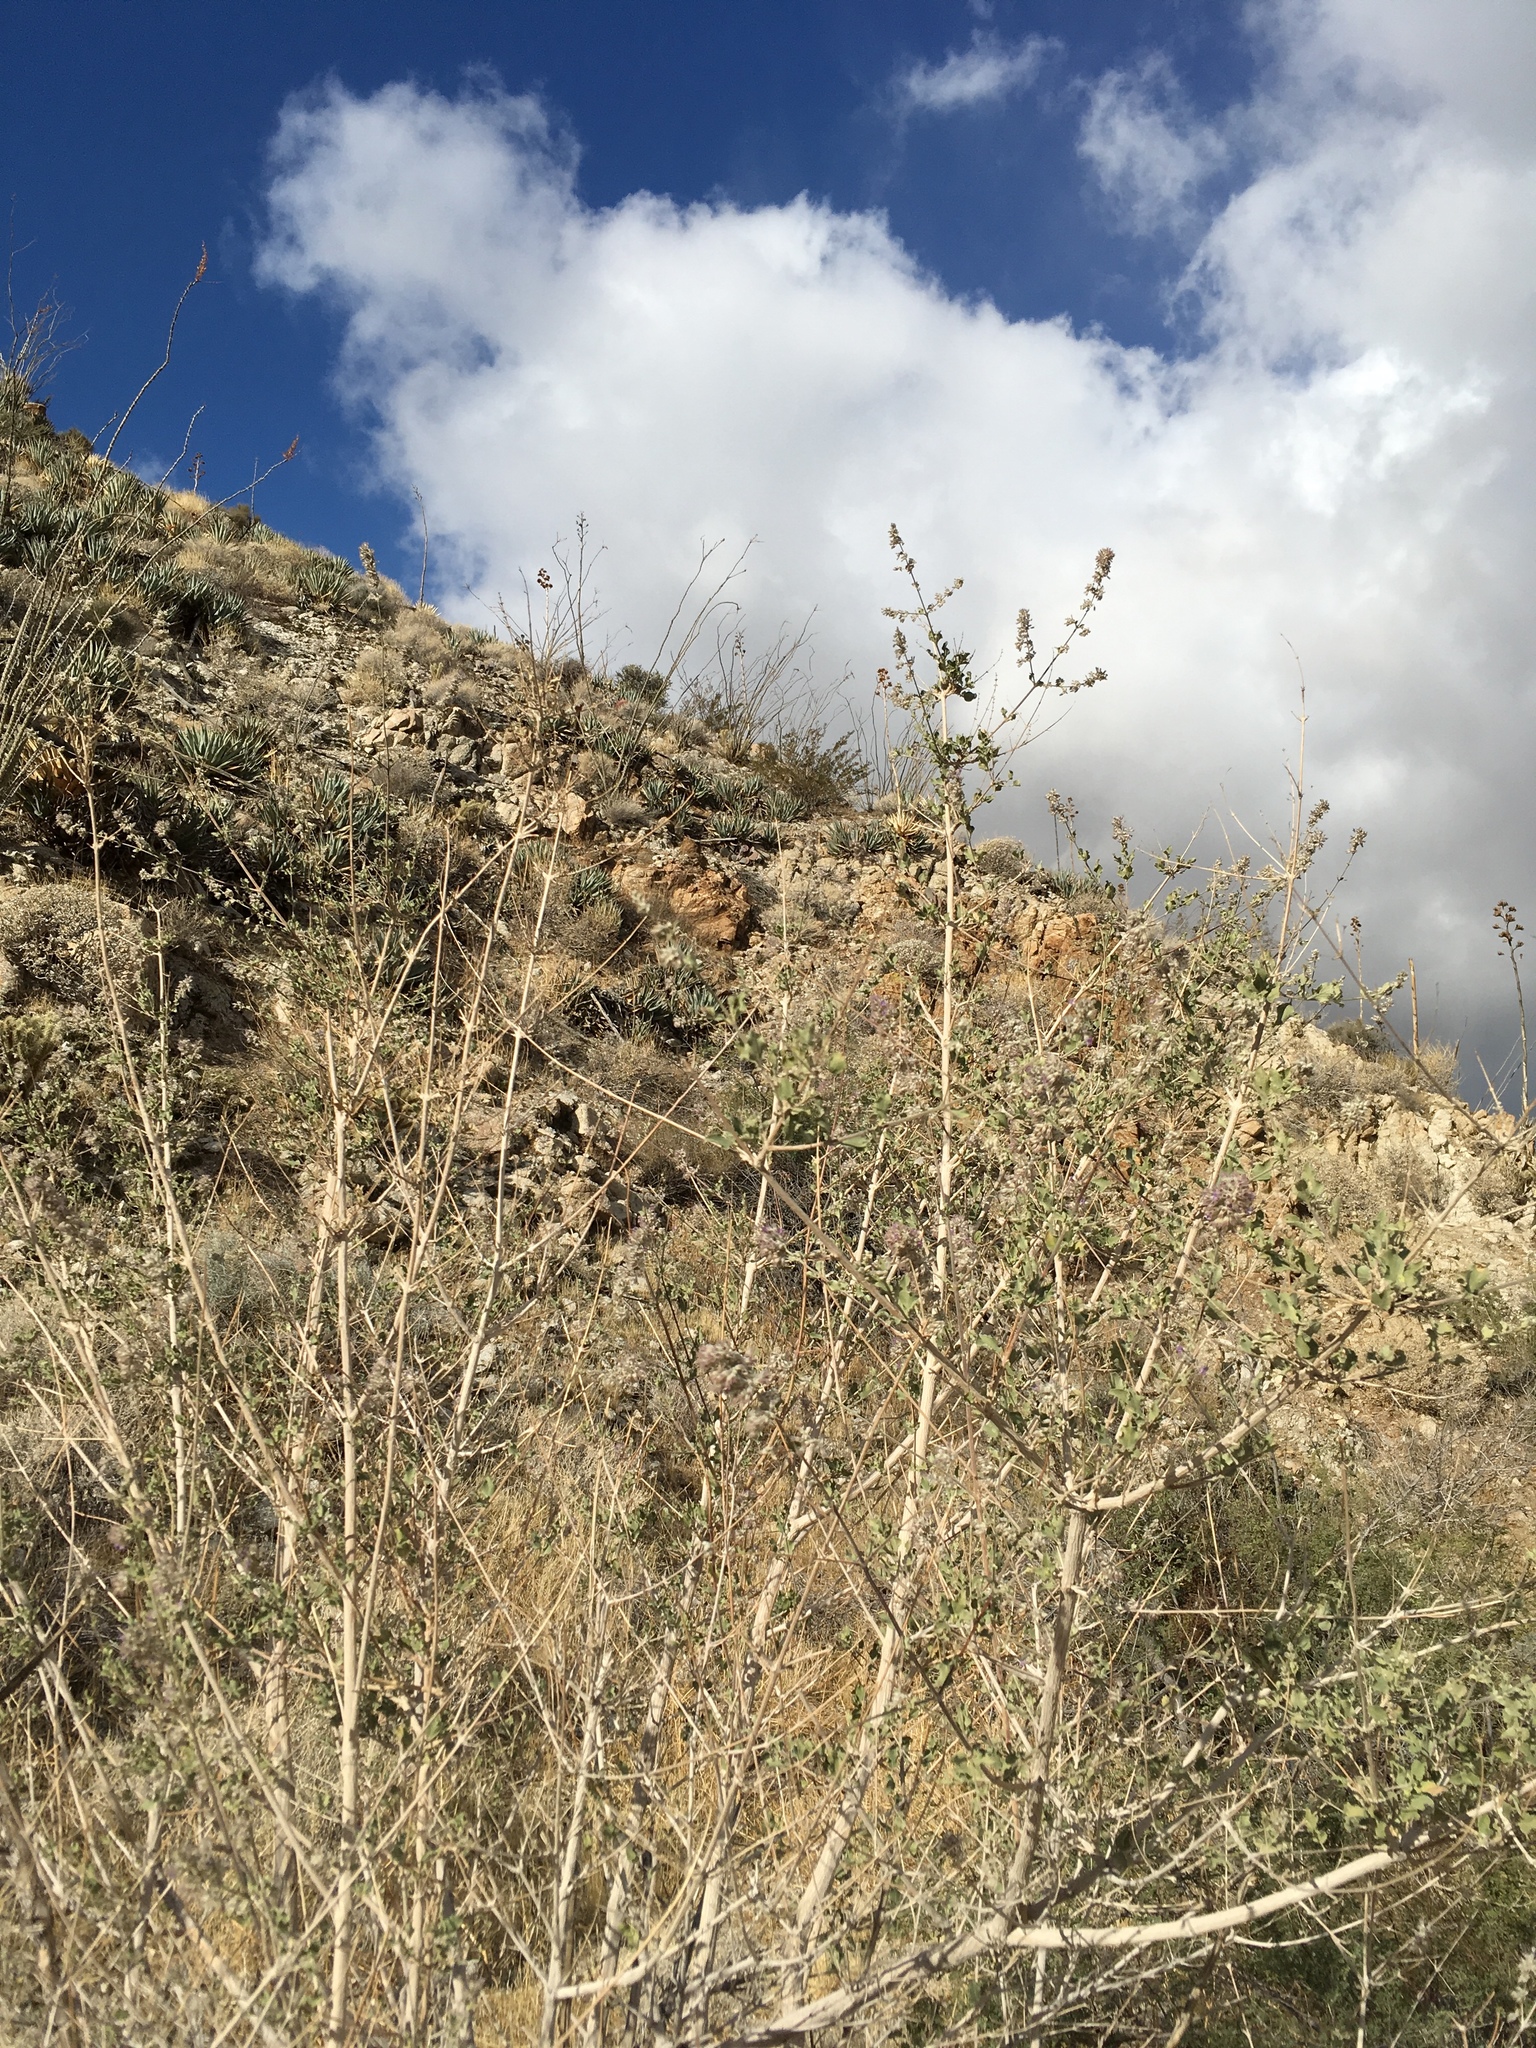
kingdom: Plantae
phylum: Tracheophyta
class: Magnoliopsida
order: Lamiales
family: Lamiaceae
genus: Condea
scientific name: Condea emoryi
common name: Chia
